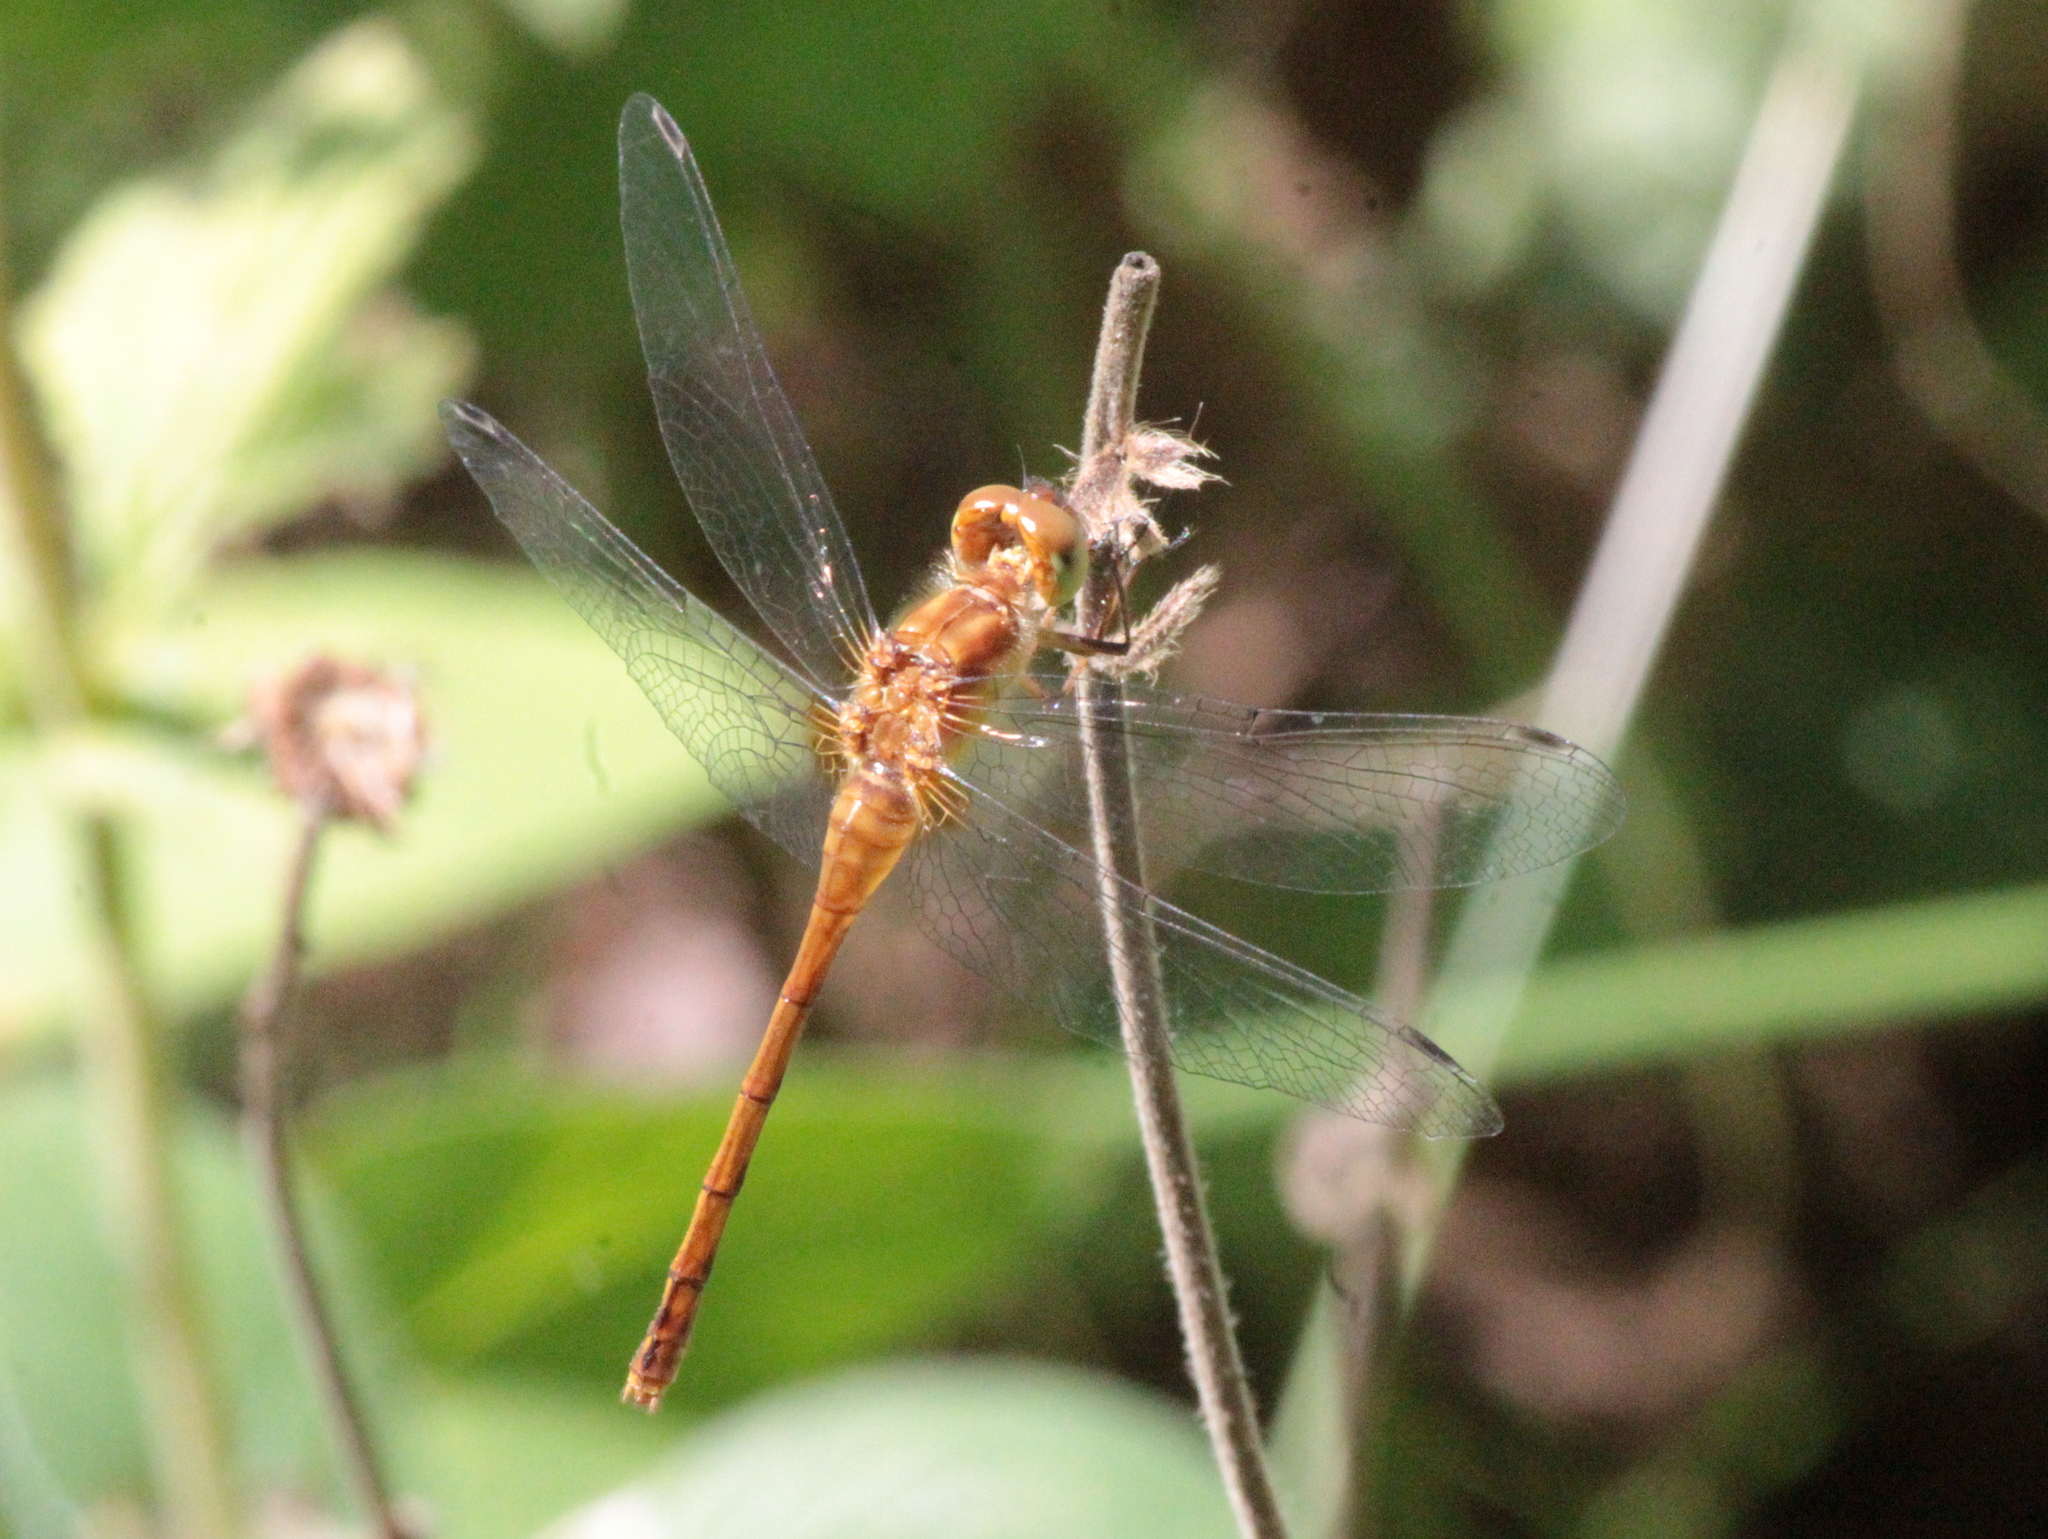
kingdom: Animalia
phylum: Arthropoda
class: Insecta
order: Odonata
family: Libellulidae
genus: Sympetrum
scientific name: Sympetrum vicinum
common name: Autumn meadowhawk
